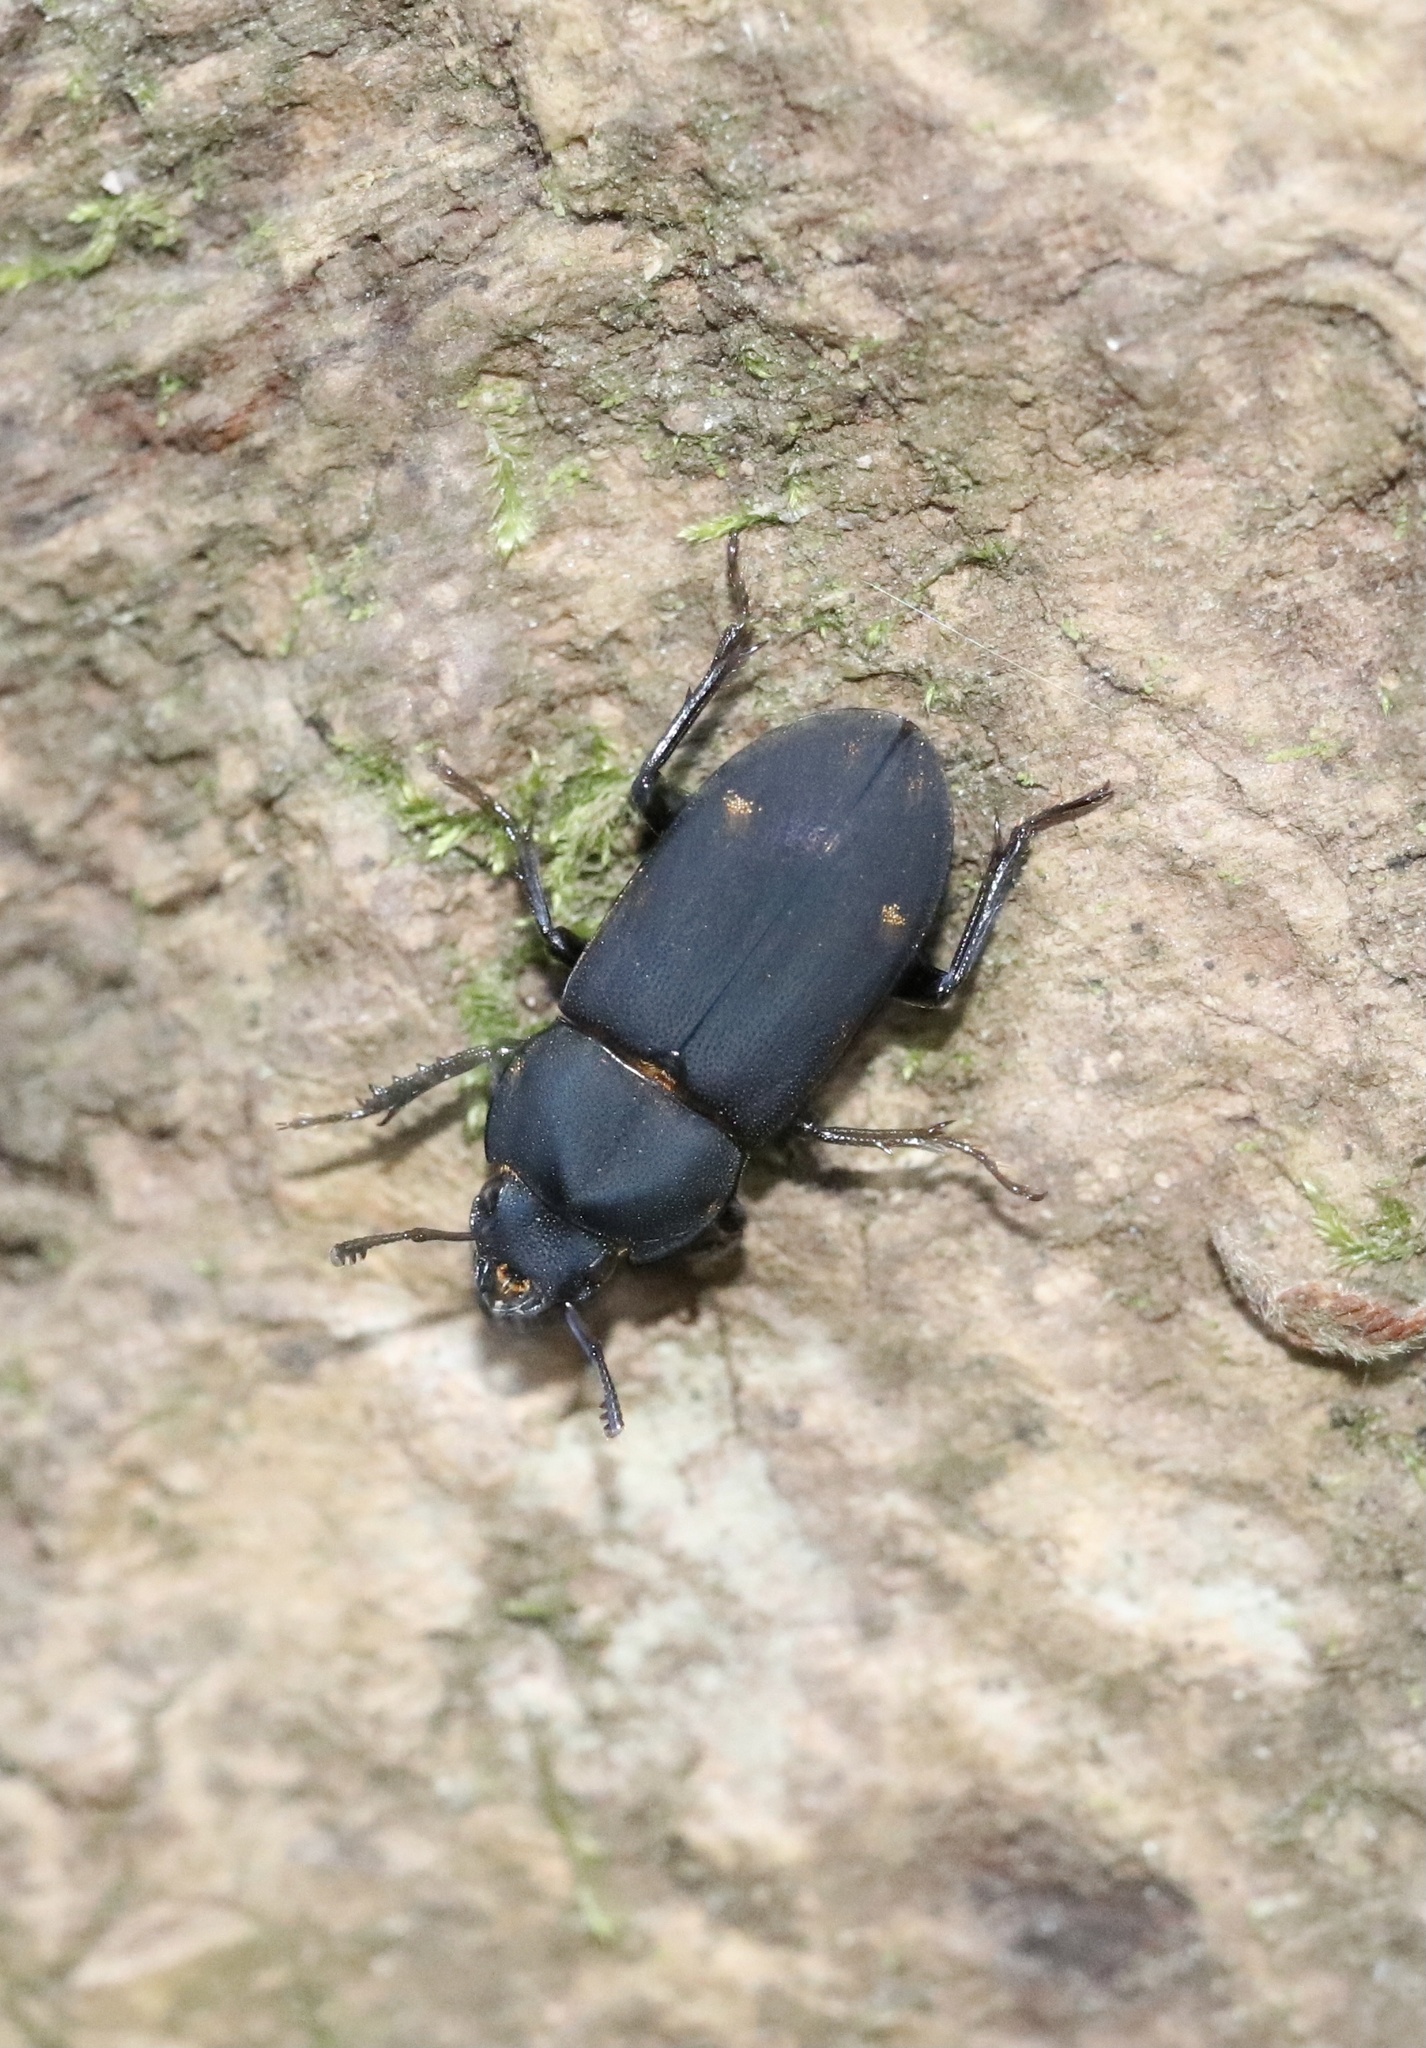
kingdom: Animalia
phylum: Arthropoda
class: Insecta
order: Coleoptera
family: Lucanidae
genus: Chileistomus
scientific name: Chileistomus cucullatus
